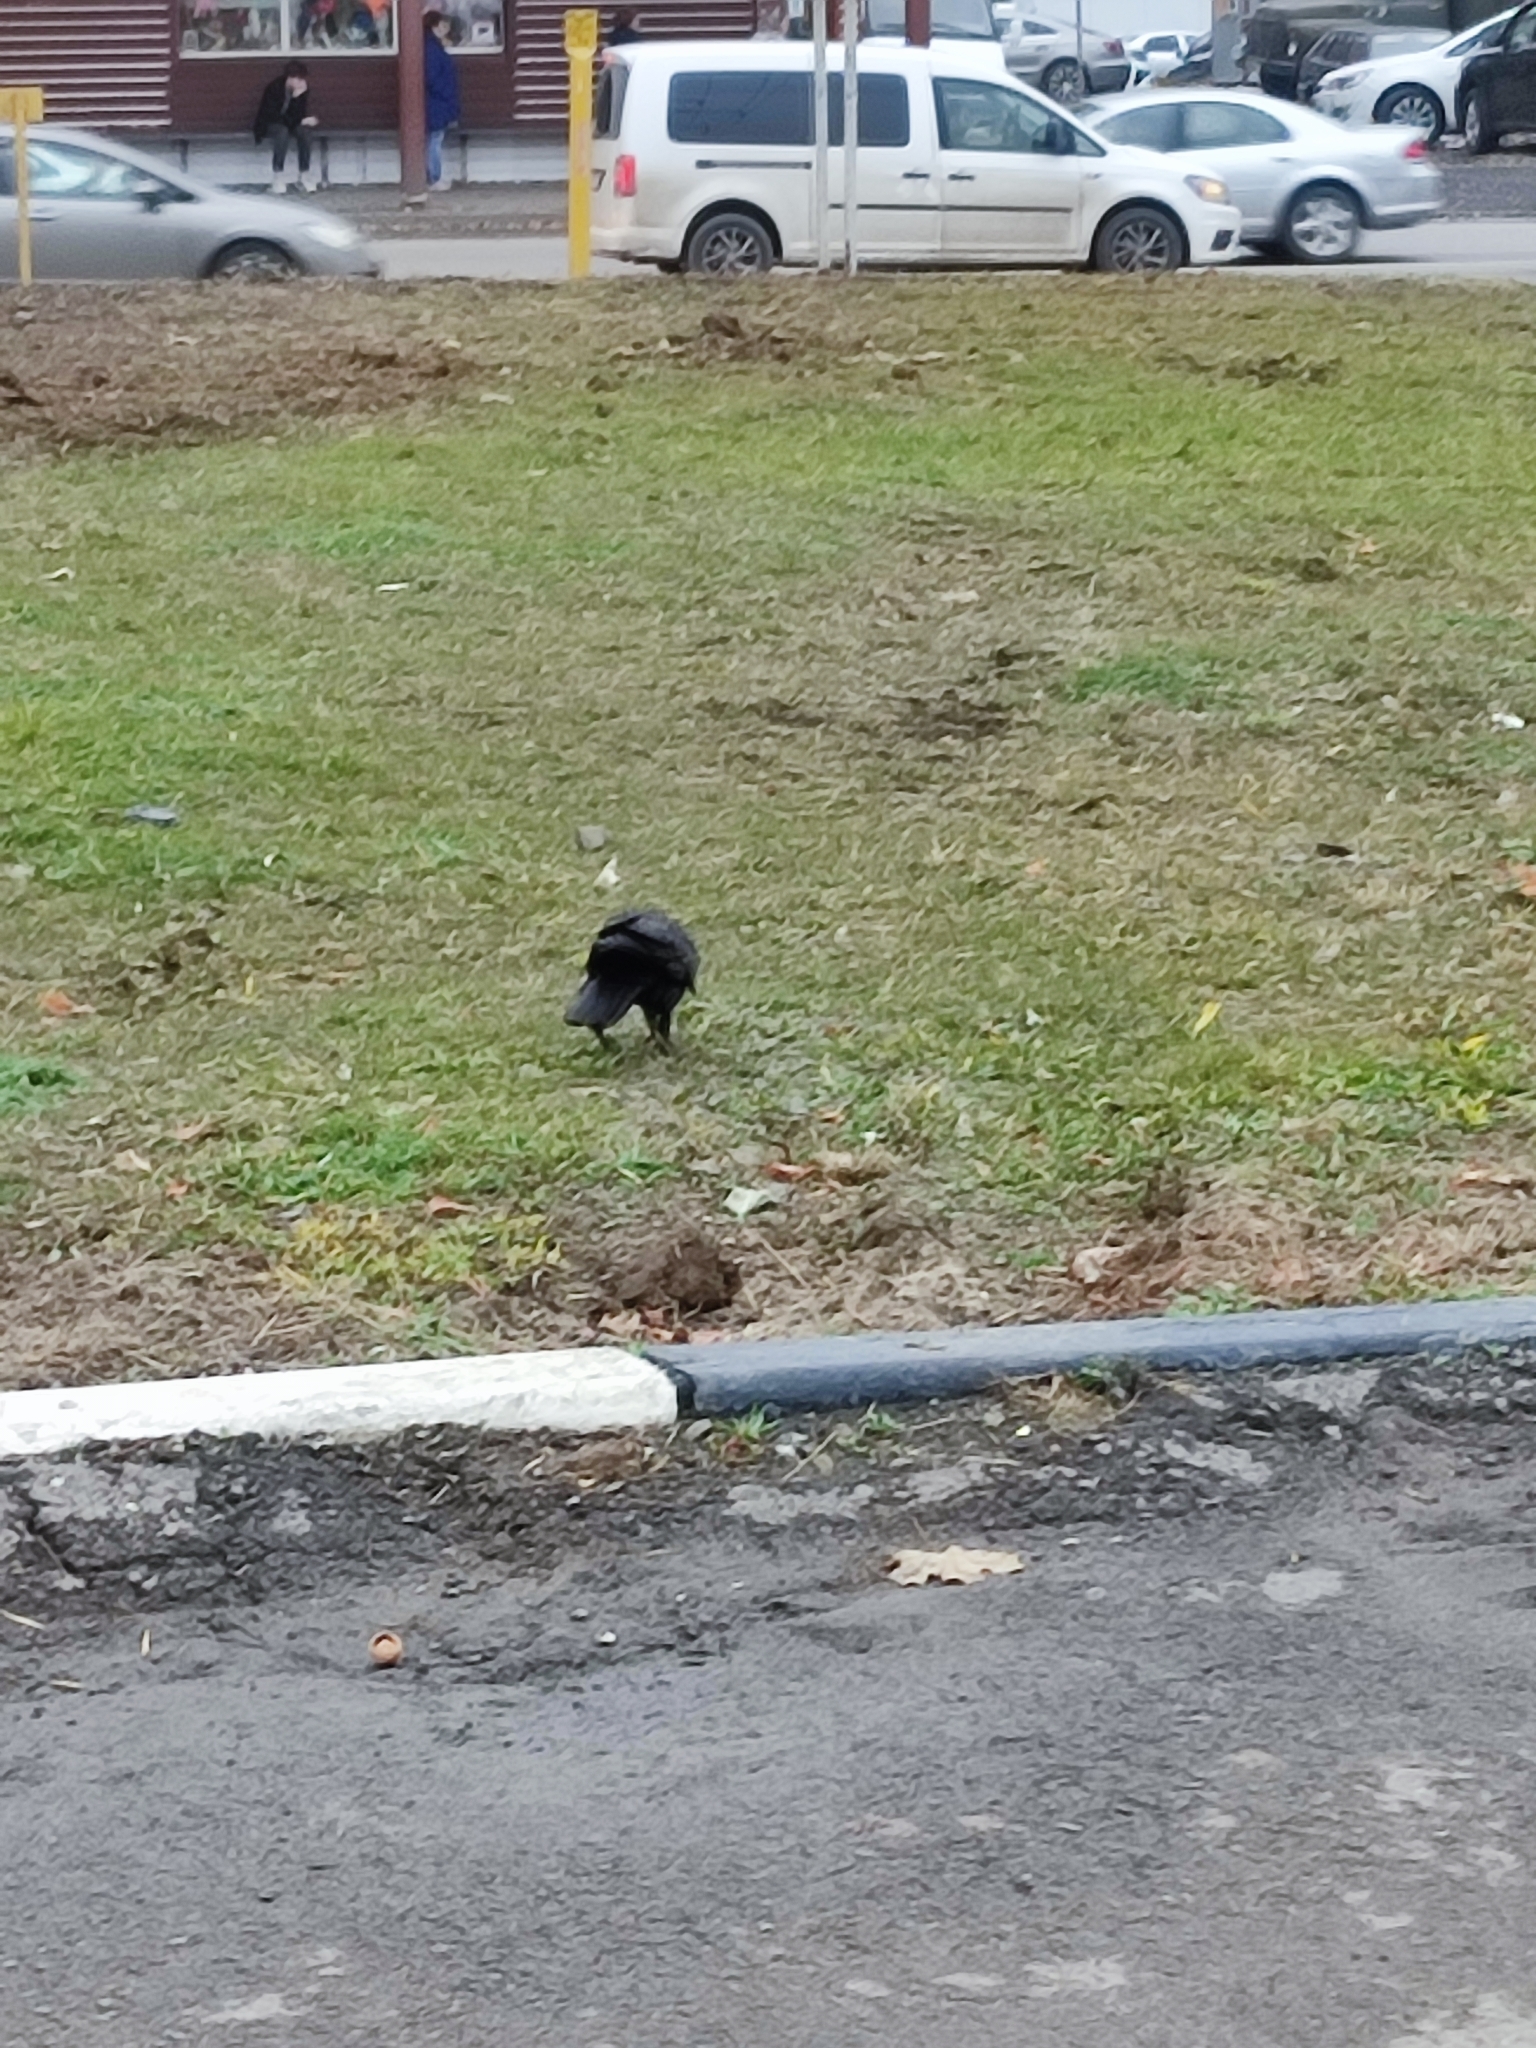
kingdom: Animalia
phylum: Chordata
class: Aves
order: Passeriformes
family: Corvidae
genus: Corvus
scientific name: Corvus frugilegus
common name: Rook
